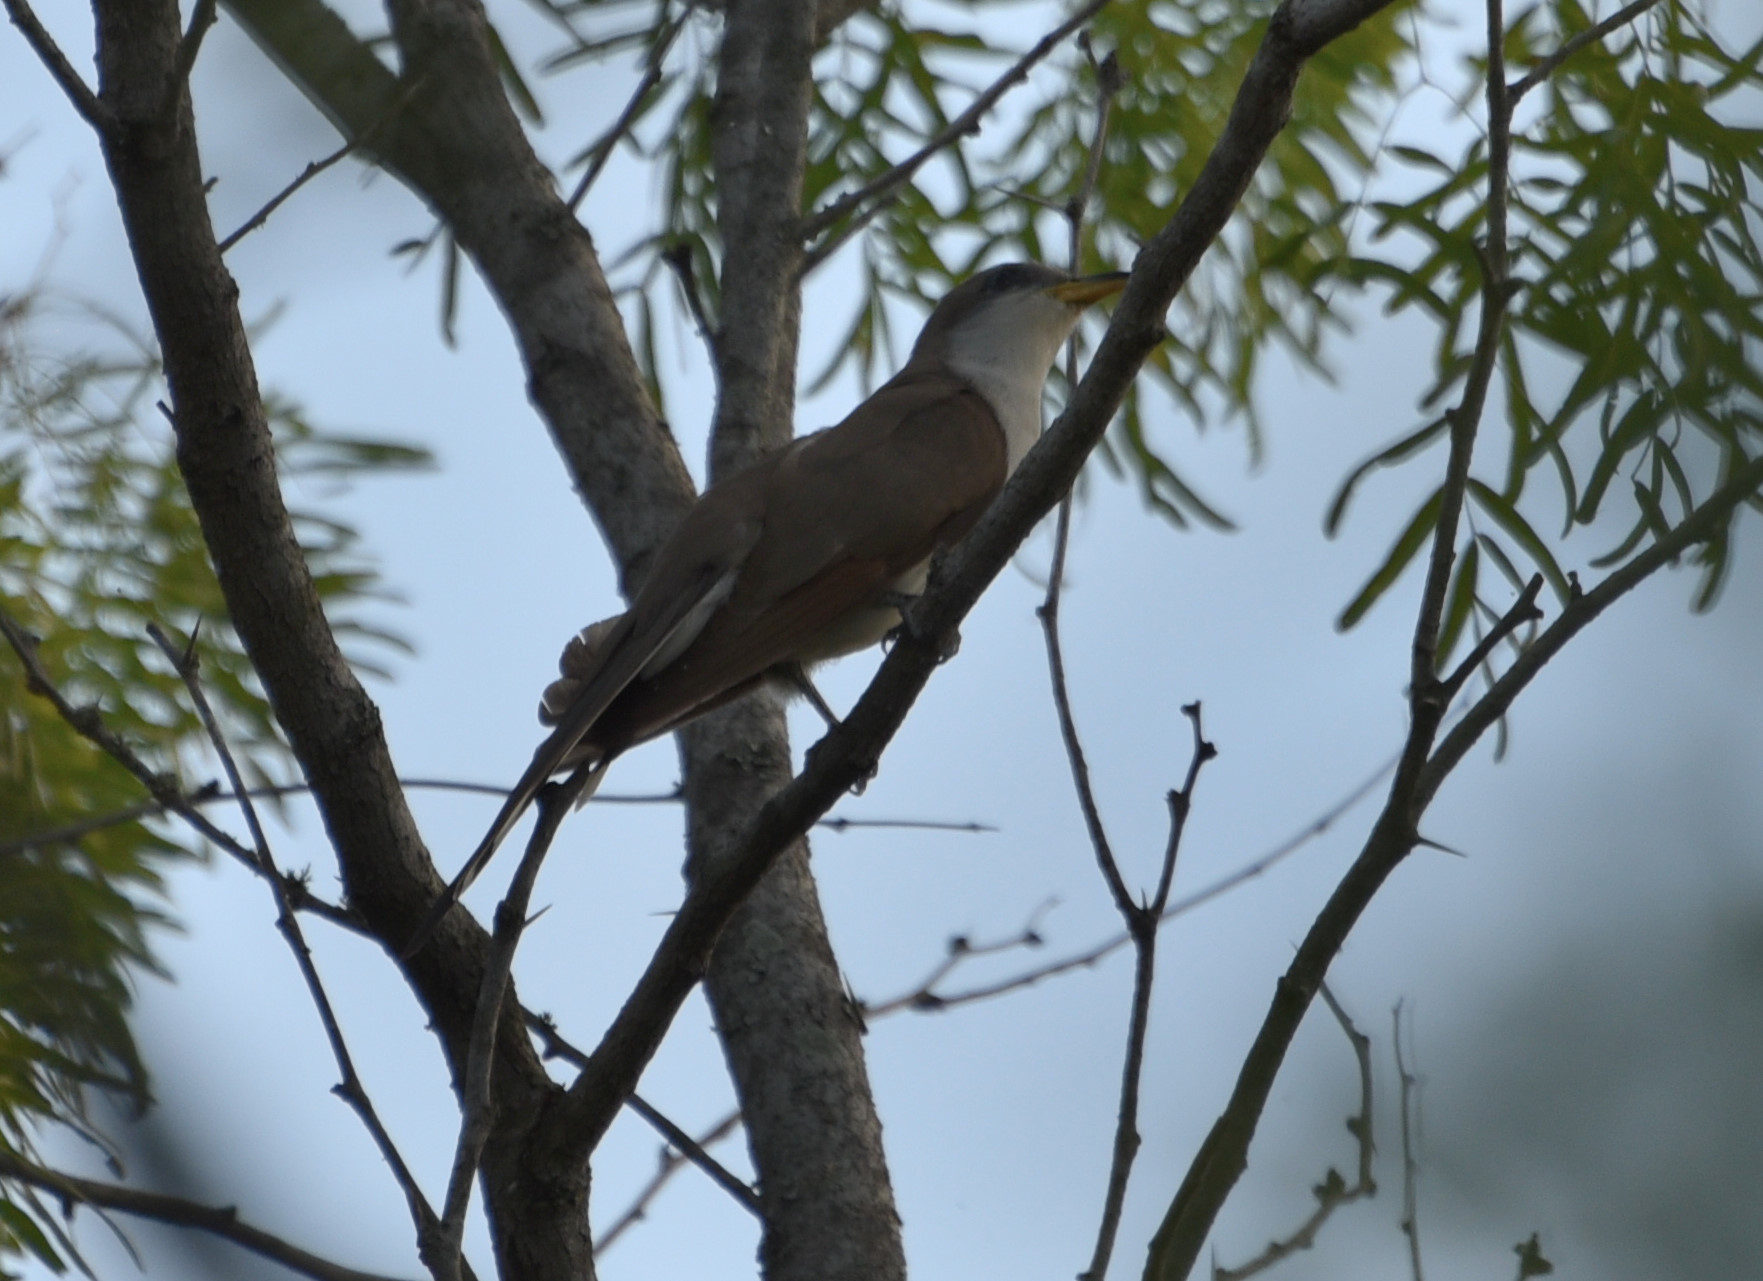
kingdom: Animalia
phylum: Chordata
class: Aves
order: Cuculiformes
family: Cuculidae
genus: Coccyzus
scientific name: Coccyzus americanus
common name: Yellow-billed cuckoo
